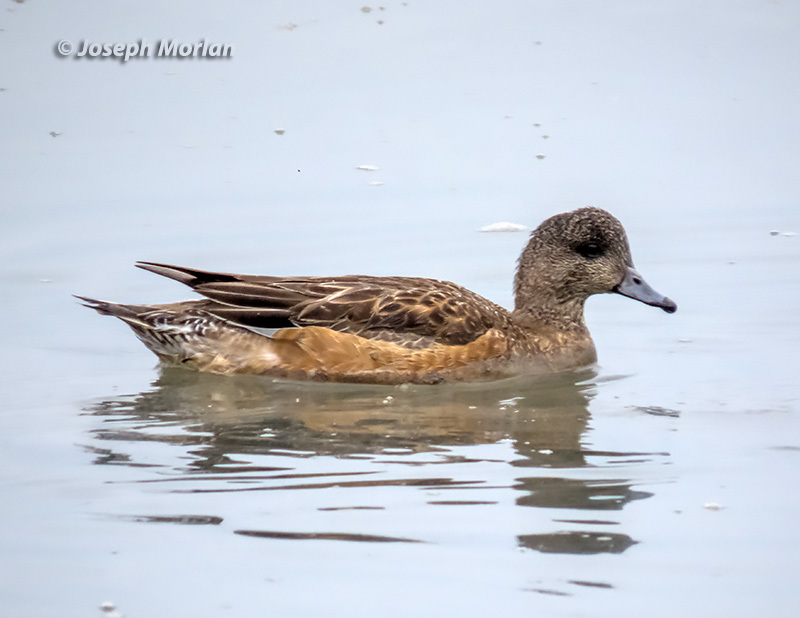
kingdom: Animalia
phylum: Chordata
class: Aves
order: Anseriformes
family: Anatidae
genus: Mareca
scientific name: Mareca americana
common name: American wigeon
